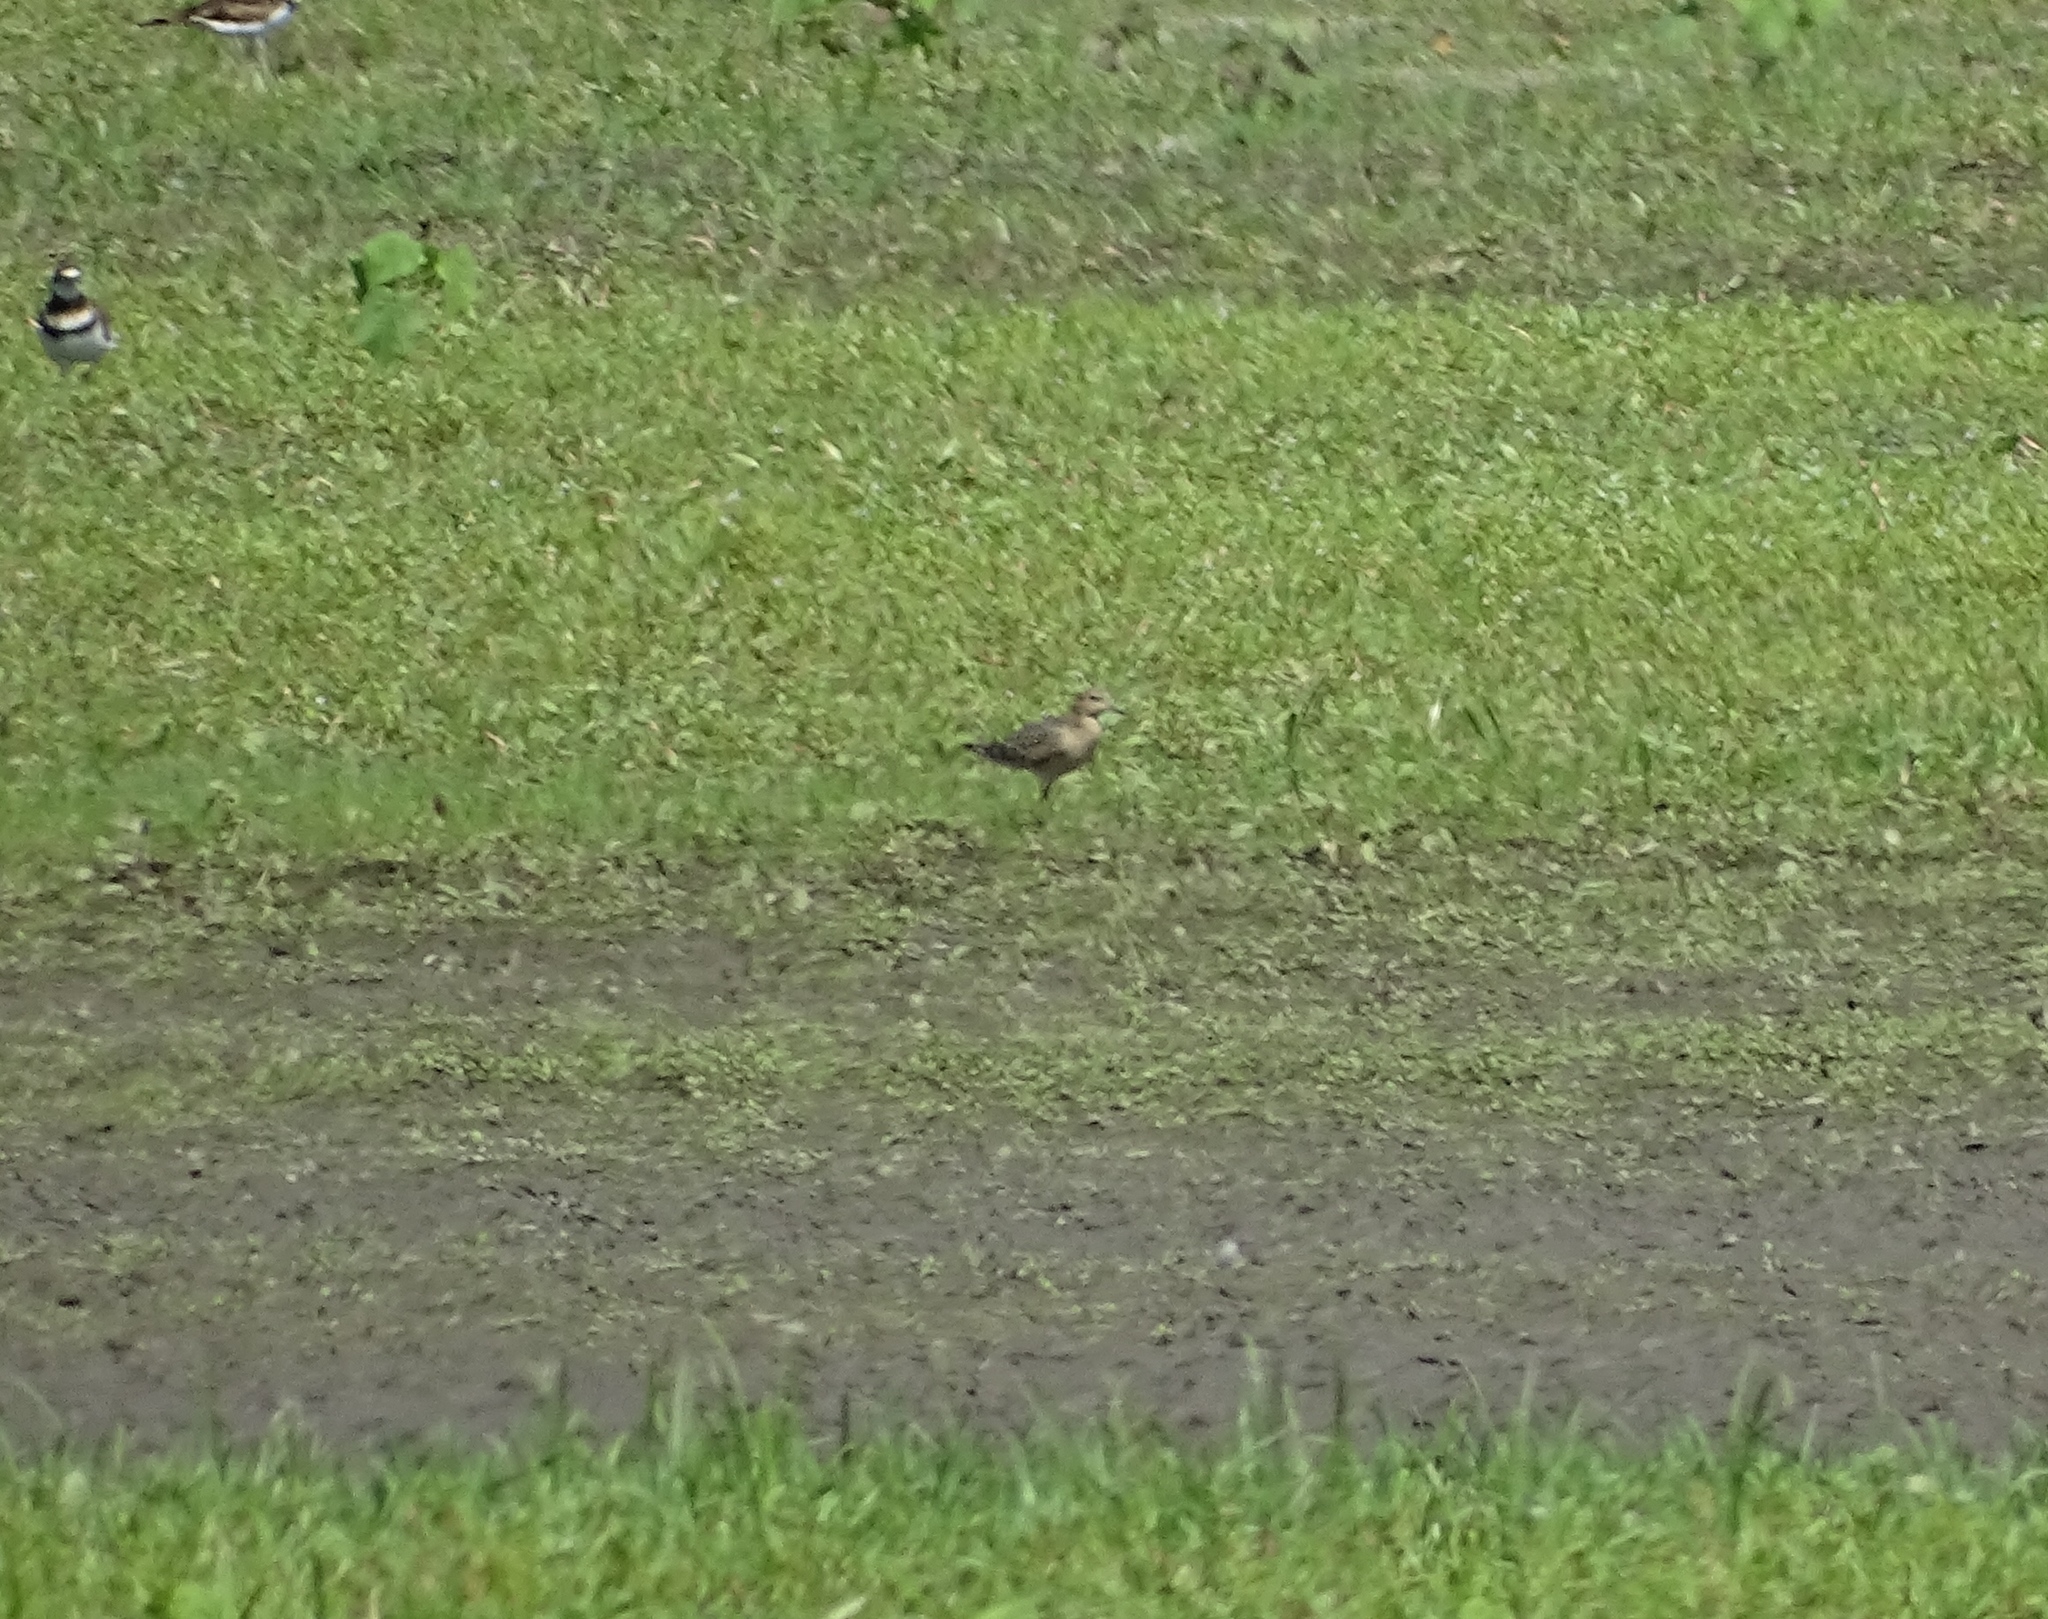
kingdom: Animalia
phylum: Chordata
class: Aves
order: Charadriiformes
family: Scolopacidae
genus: Calidris
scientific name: Calidris subruficollis
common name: Buff-breasted sandpiper
